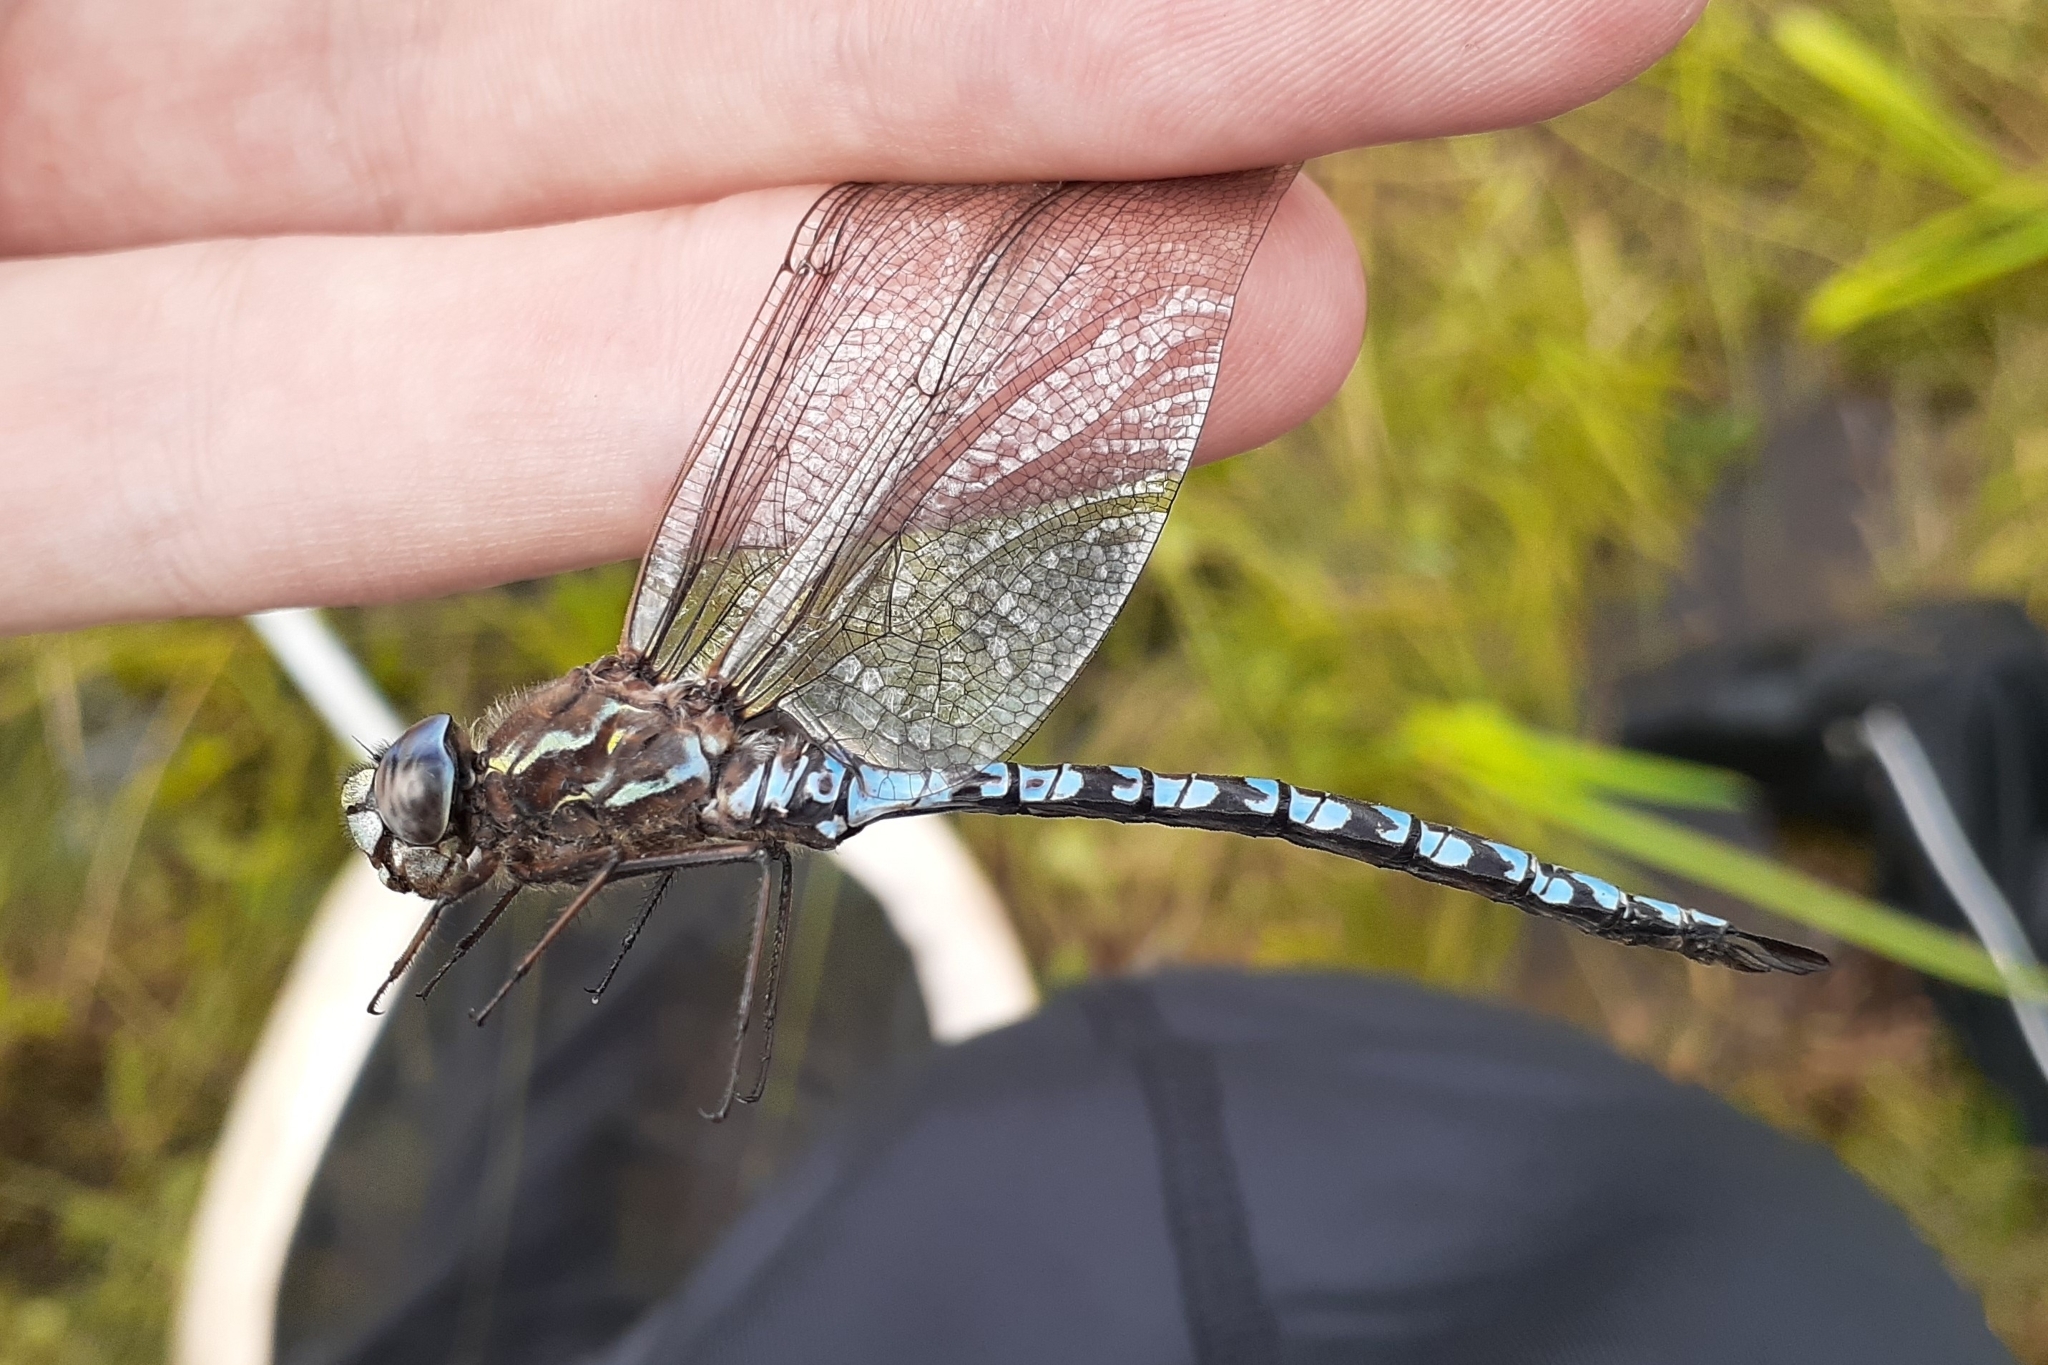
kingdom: Animalia
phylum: Arthropoda
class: Insecta
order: Odonata
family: Aeshnidae
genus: Aeshna
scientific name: Aeshna sitchensis
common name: Zigzag darner
